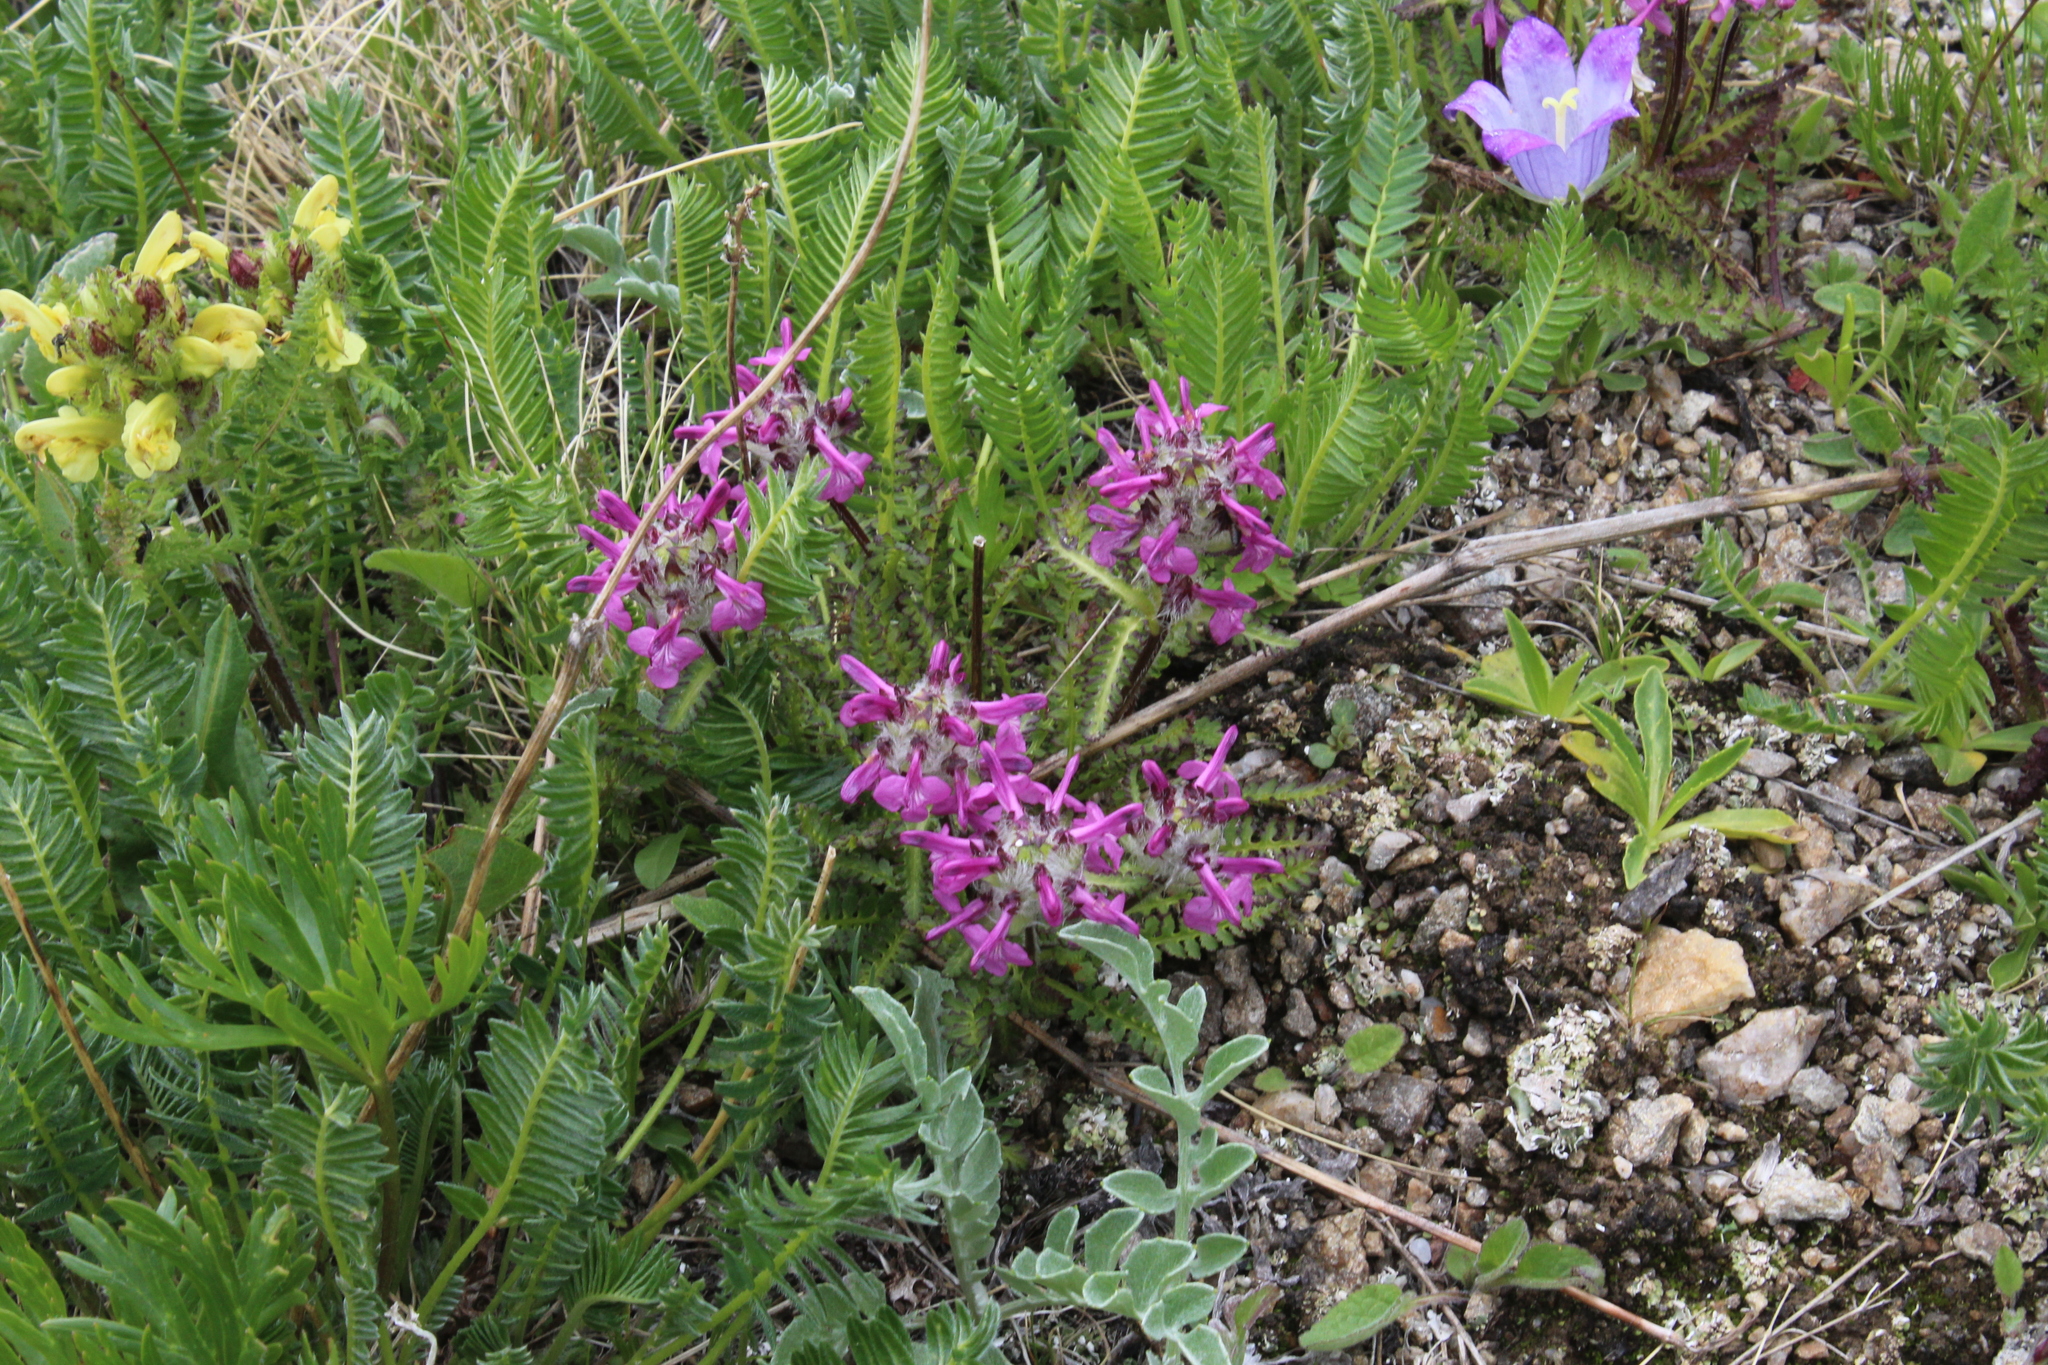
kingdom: Plantae
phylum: Tracheophyta
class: Magnoliopsida
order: Lamiales
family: Orobanchaceae
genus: Pedicularis
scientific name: Pedicularis caucasica
